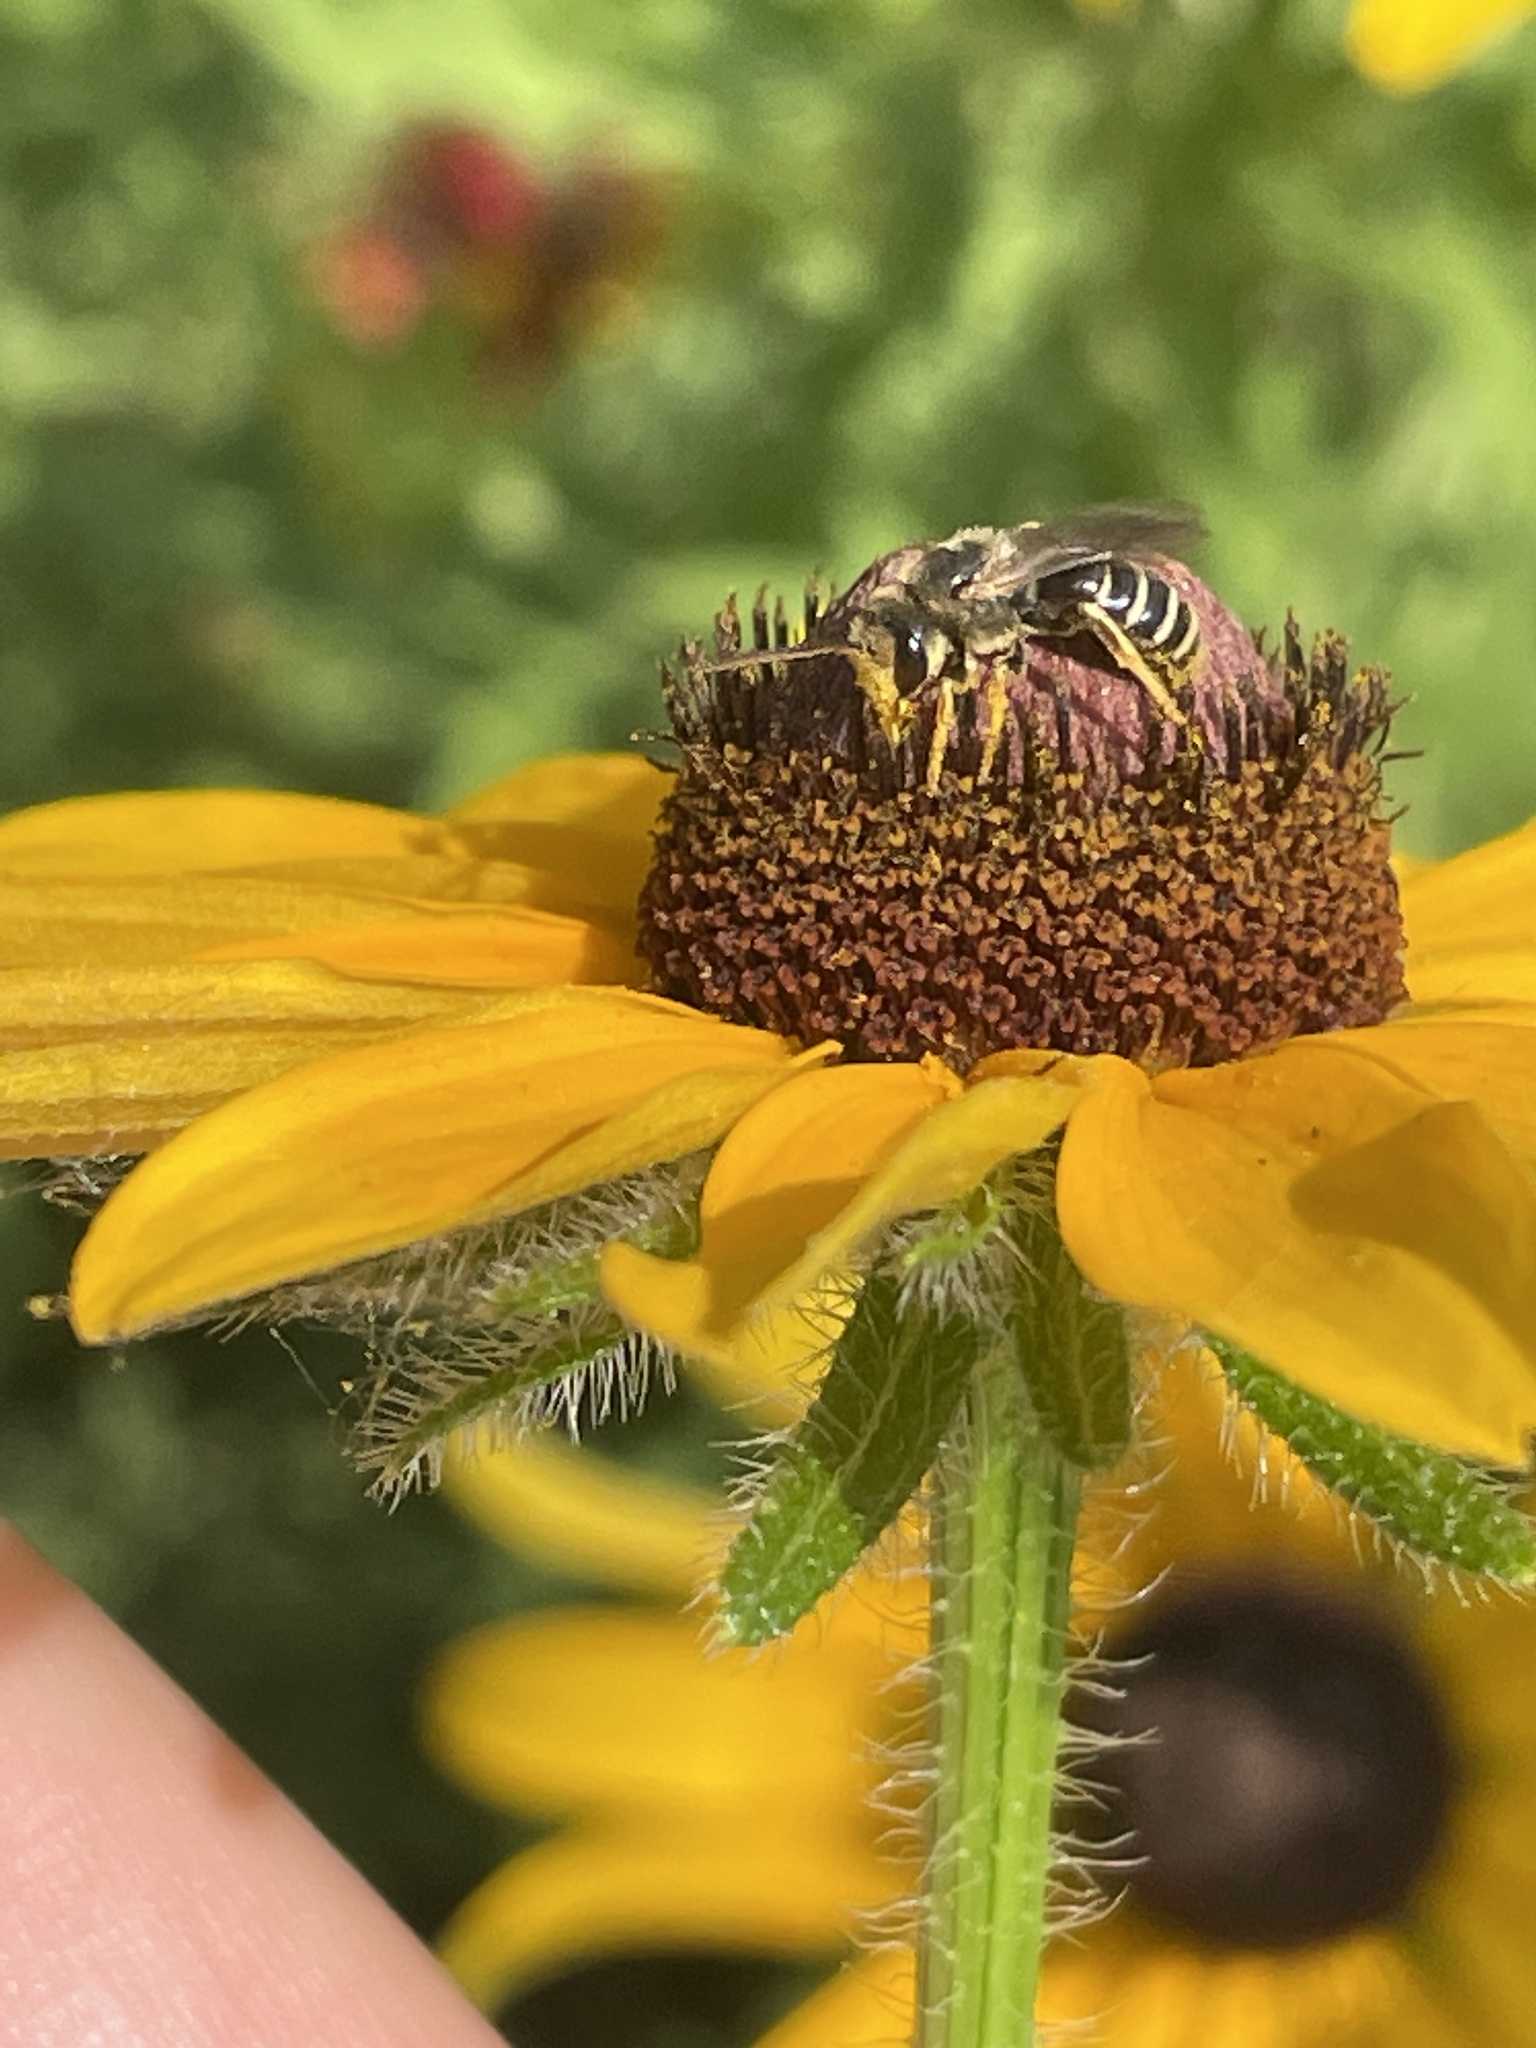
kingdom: Animalia
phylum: Arthropoda
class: Insecta
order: Hymenoptera
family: Halictidae
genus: Halictus
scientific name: Halictus ligatus
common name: Ligated furrow bee
